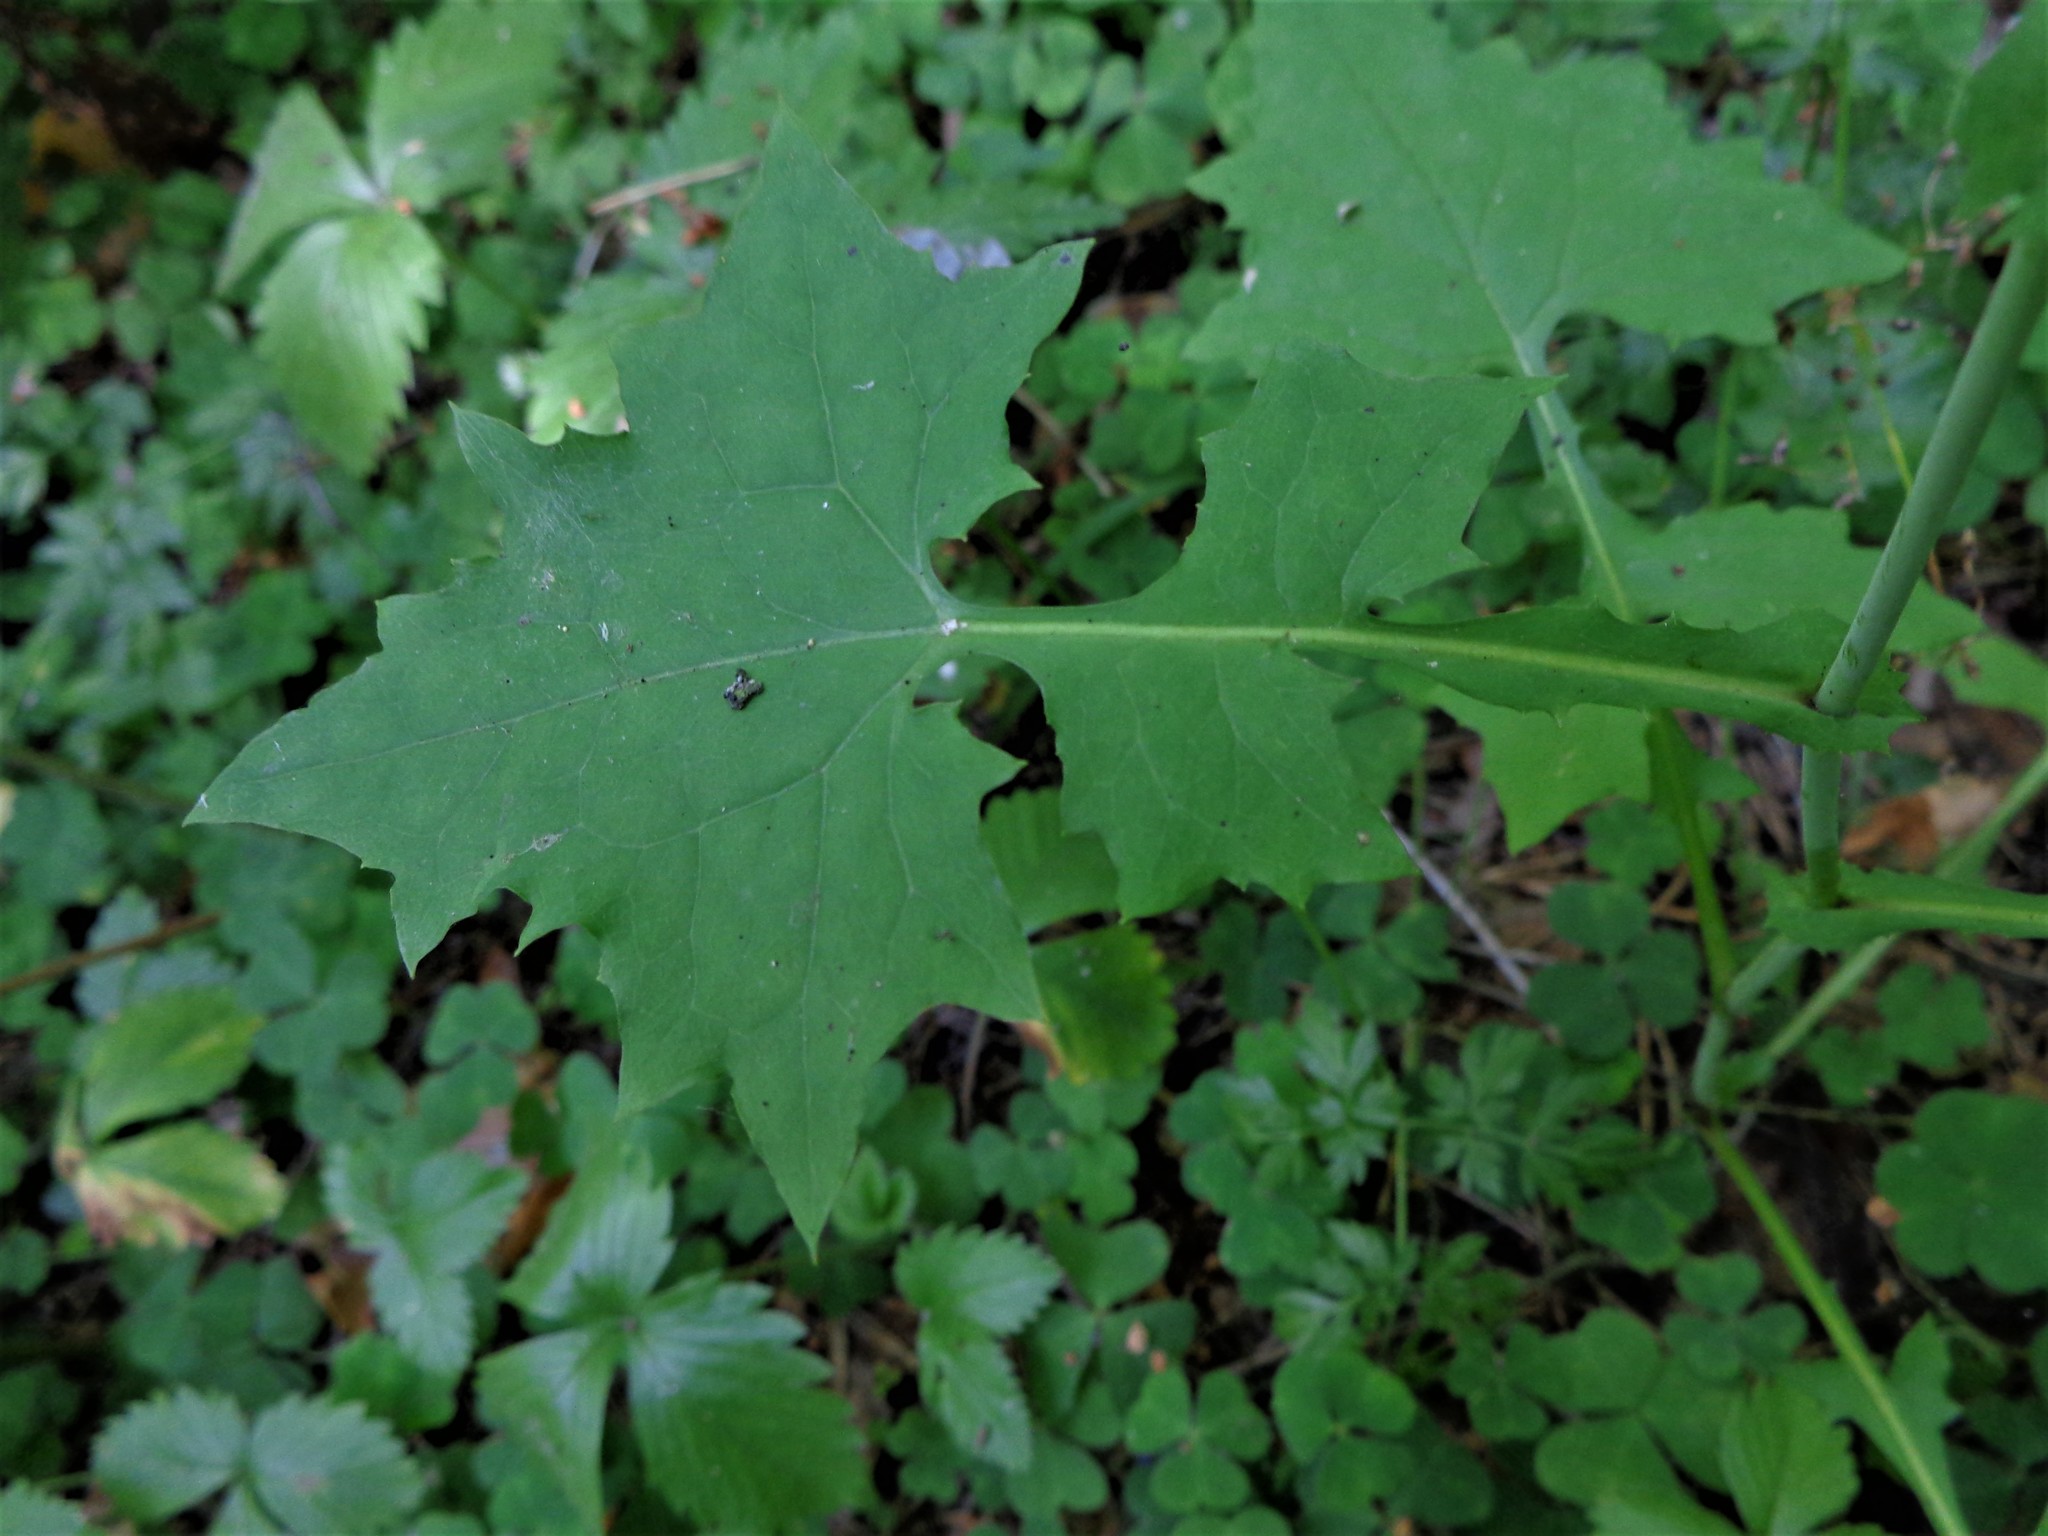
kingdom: Plantae
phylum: Tracheophyta
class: Magnoliopsida
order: Asterales
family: Asteraceae
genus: Mycelis
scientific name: Mycelis muralis
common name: Wall lettuce
